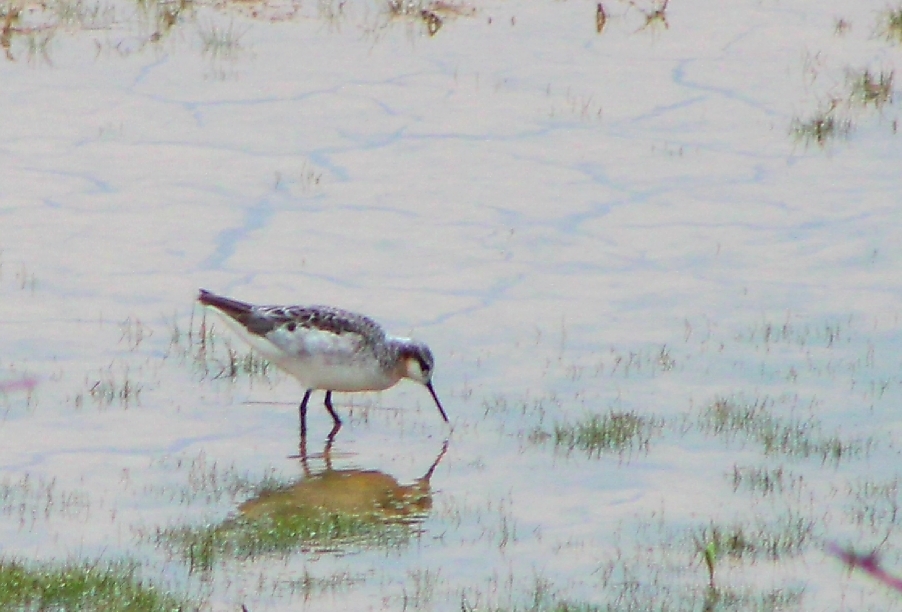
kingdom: Animalia
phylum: Chordata
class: Aves
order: Charadriiformes
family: Scolopacidae
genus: Phalaropus
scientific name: Phalaropus tricolor
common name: Wilson's phalarope
